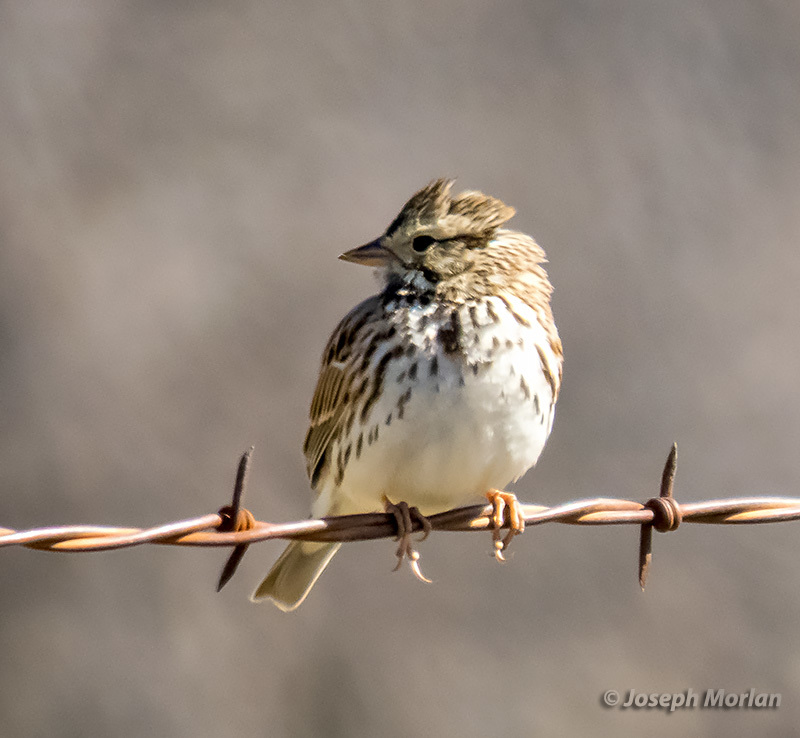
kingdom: Animalia
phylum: Chordata
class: Aves
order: Passeriformes
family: Passerellidae
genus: Passerculus
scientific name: Passerculus sandwichensis
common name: Savannah sparrow
